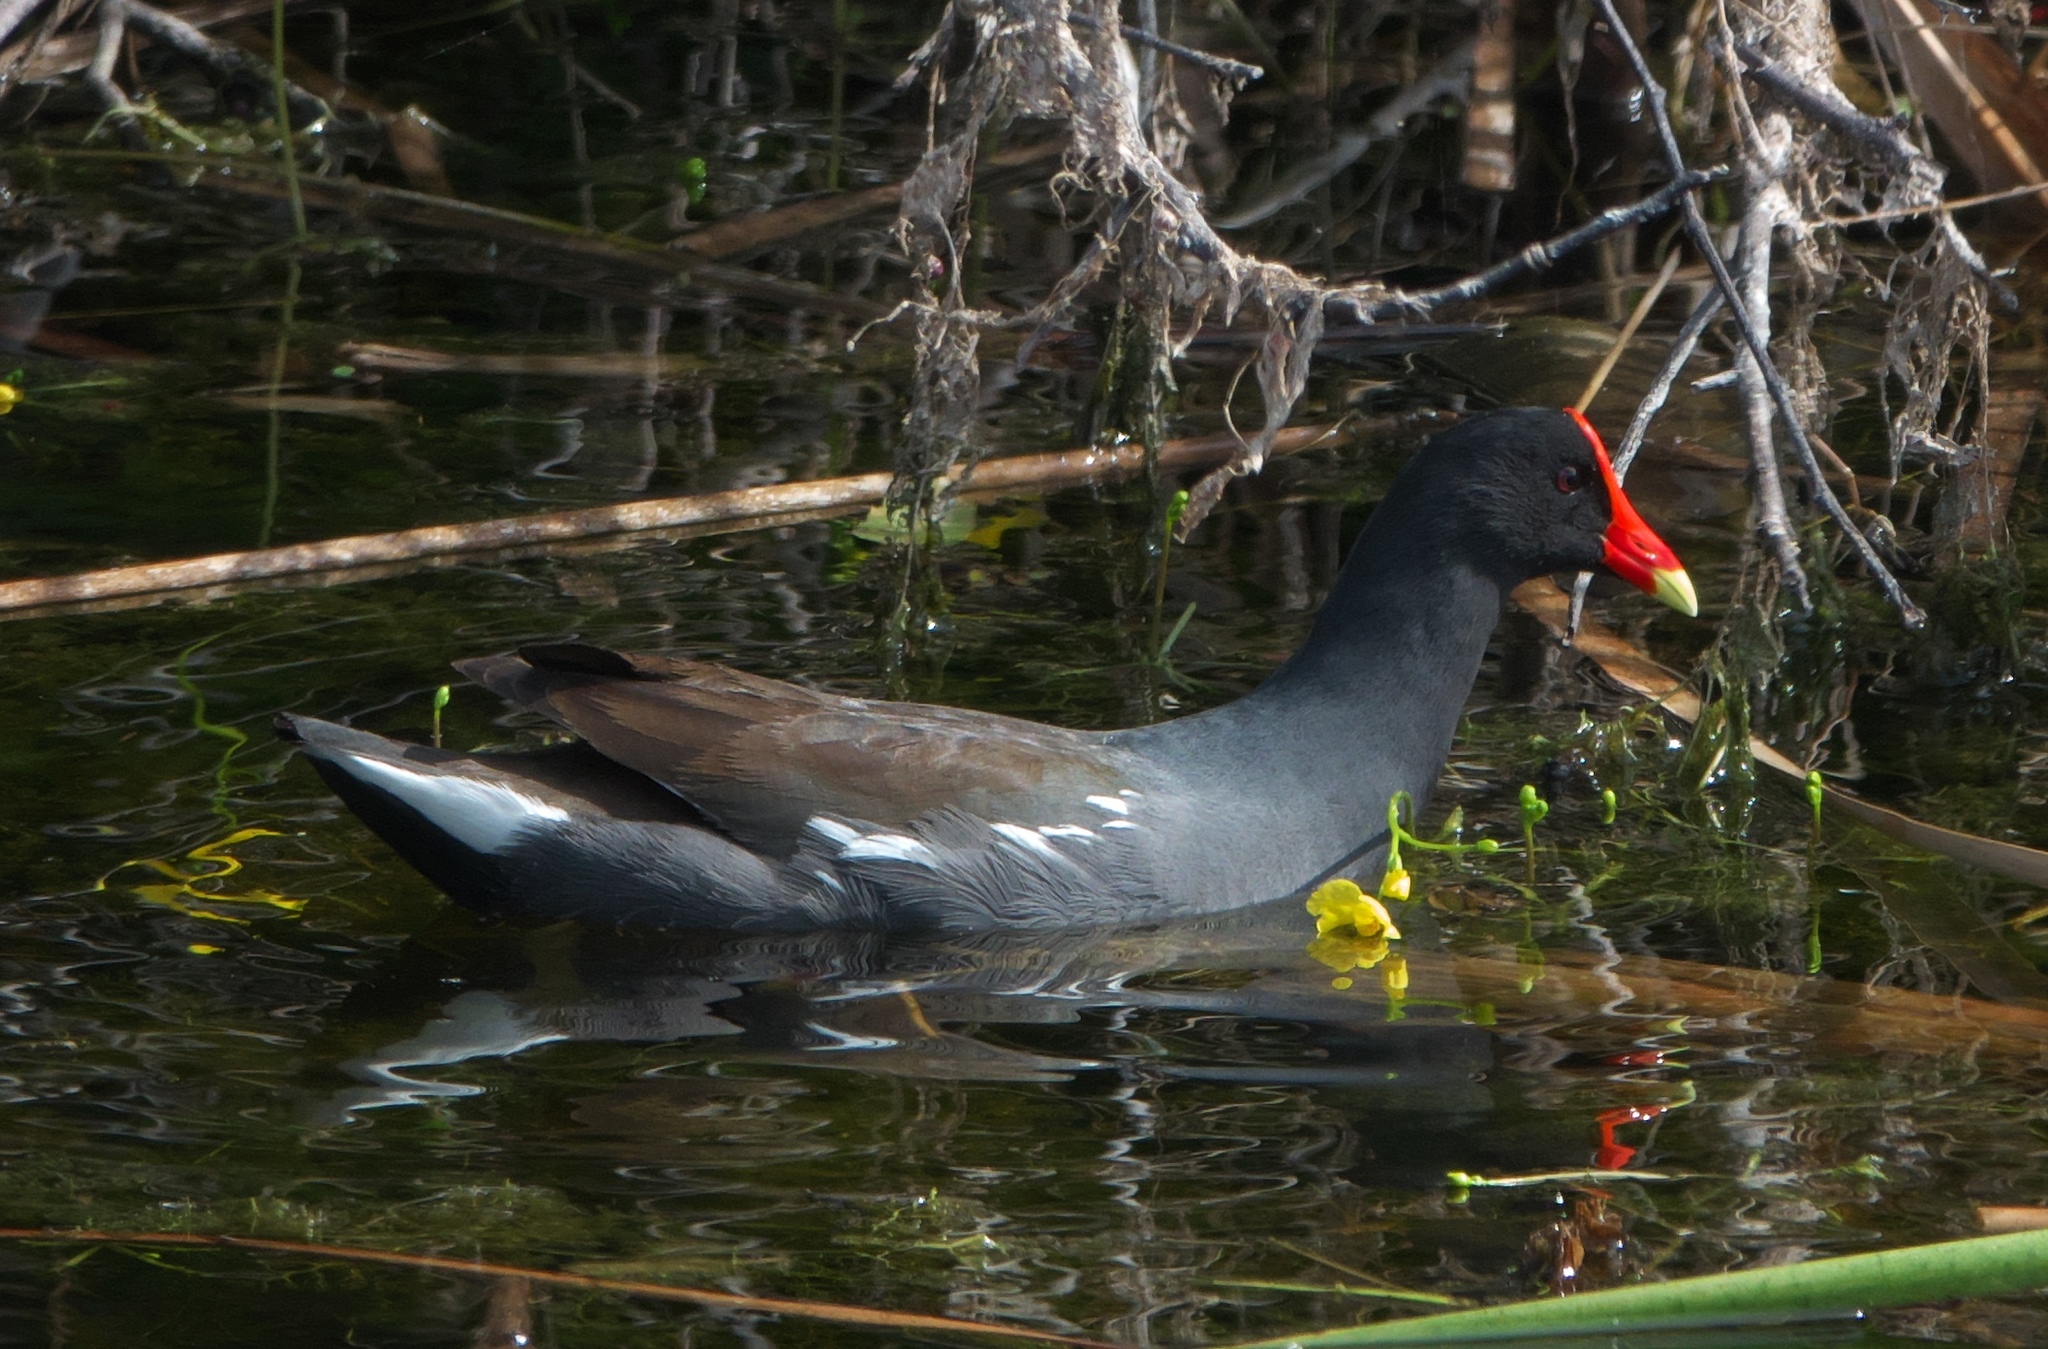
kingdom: Animalia
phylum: Chordata
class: Aves
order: Gruiformes
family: Rallidae
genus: Gallinula
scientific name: Gallinula chloropus
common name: Common moorhen
